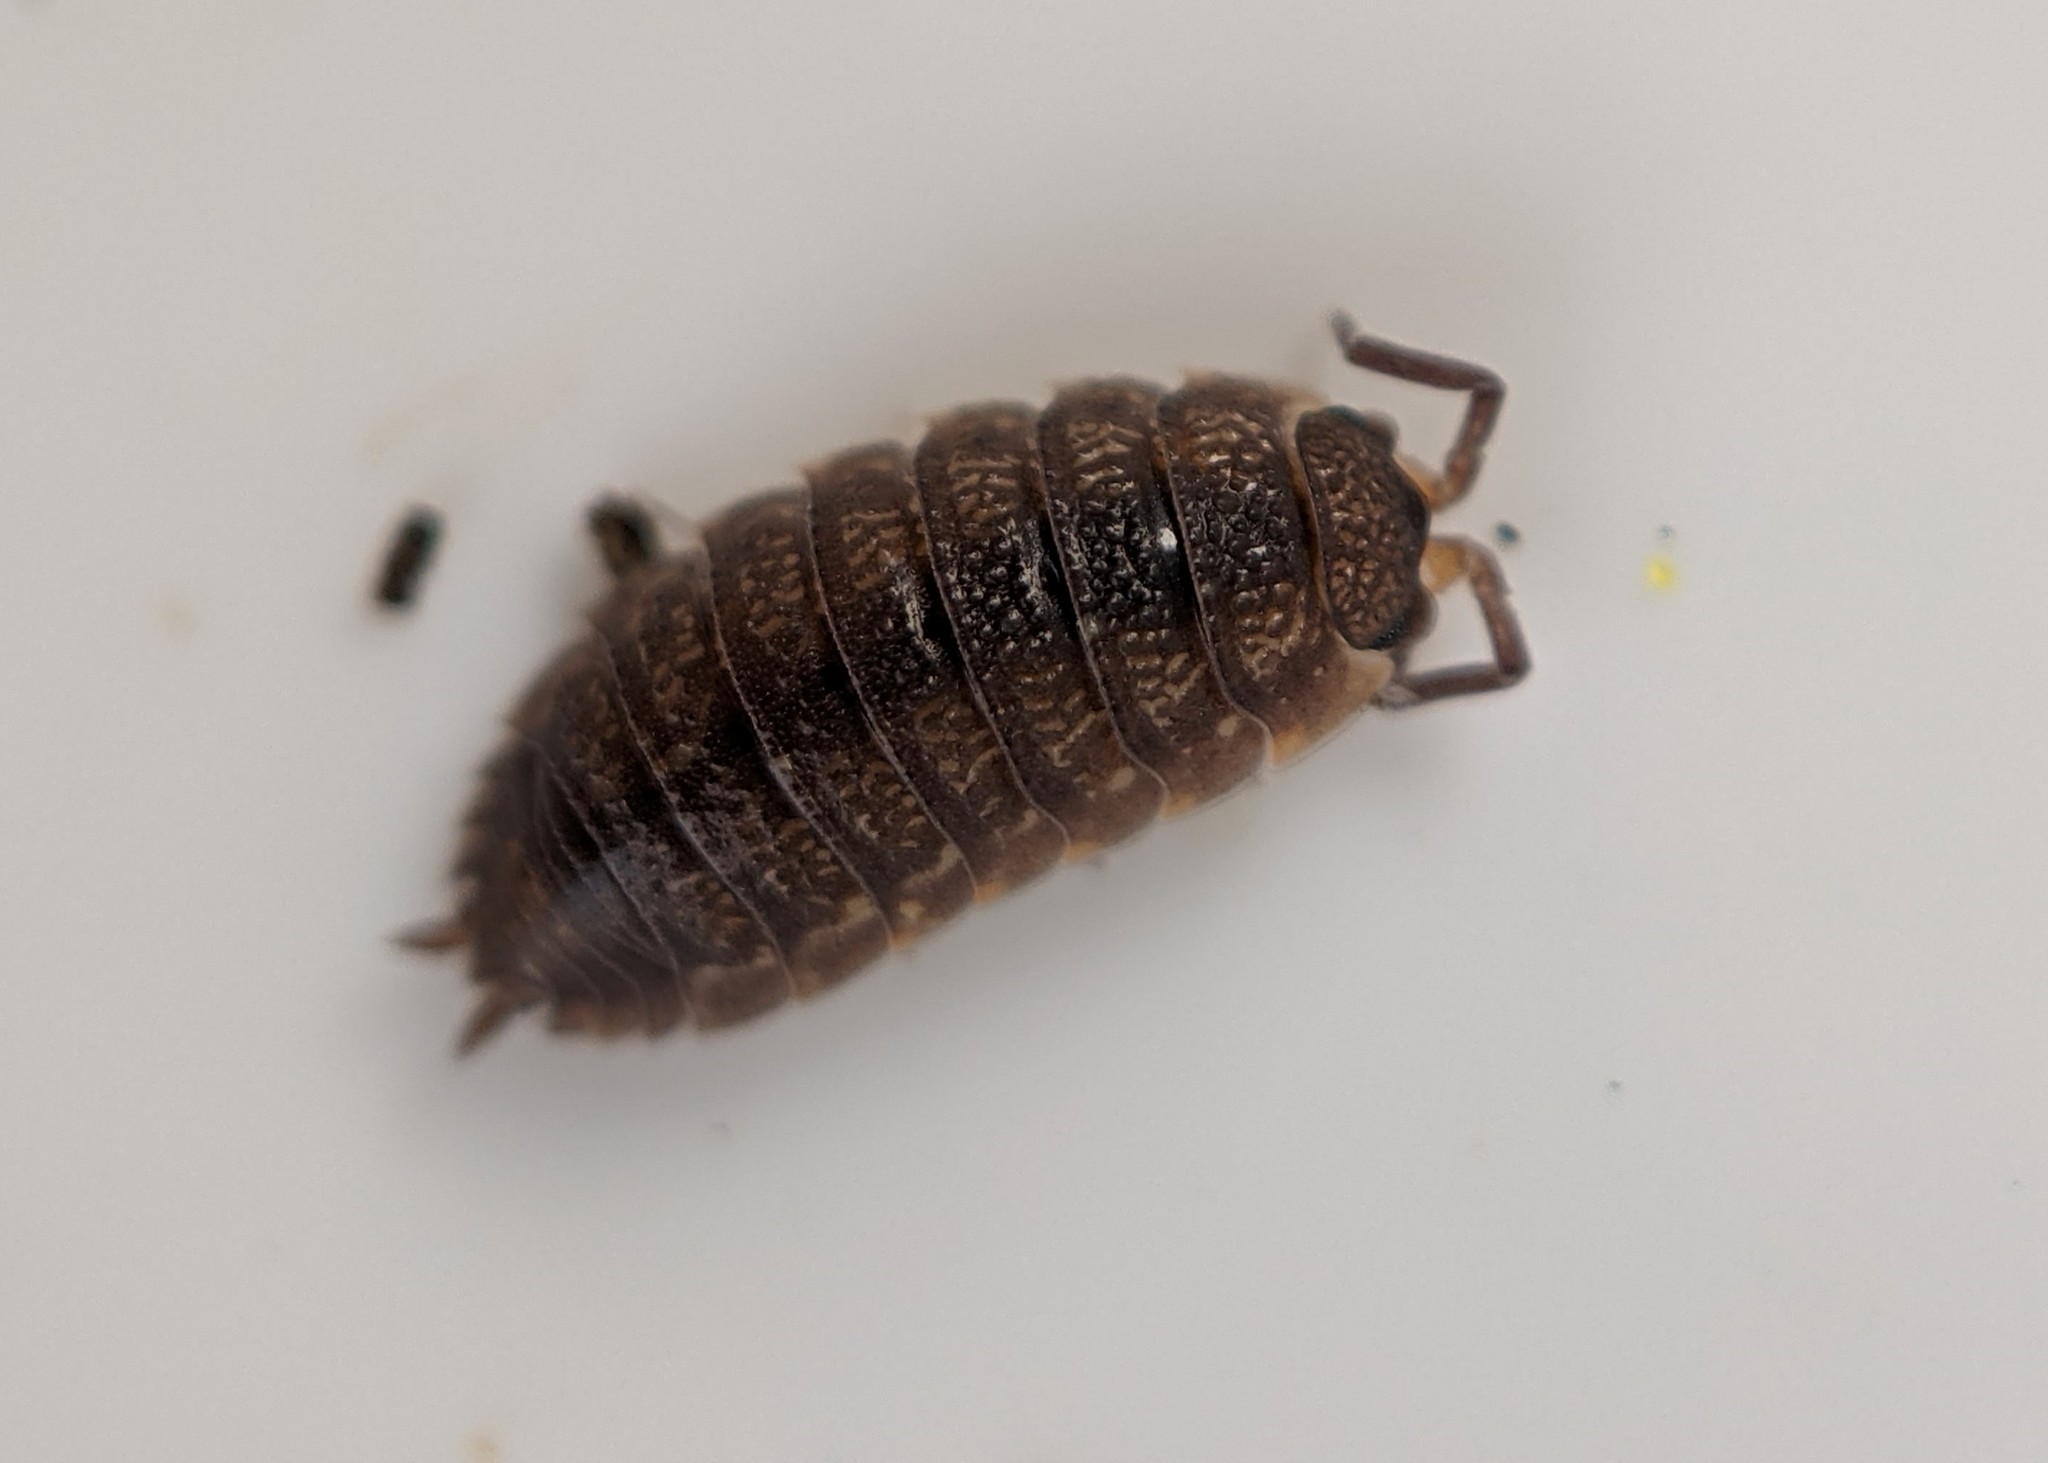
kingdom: Animalia
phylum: Arthropoda
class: Malacostraca
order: Isopoda
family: Porcellionidae
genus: Porcellio
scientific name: Porcellio scaber
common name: Common rough woodlouse
